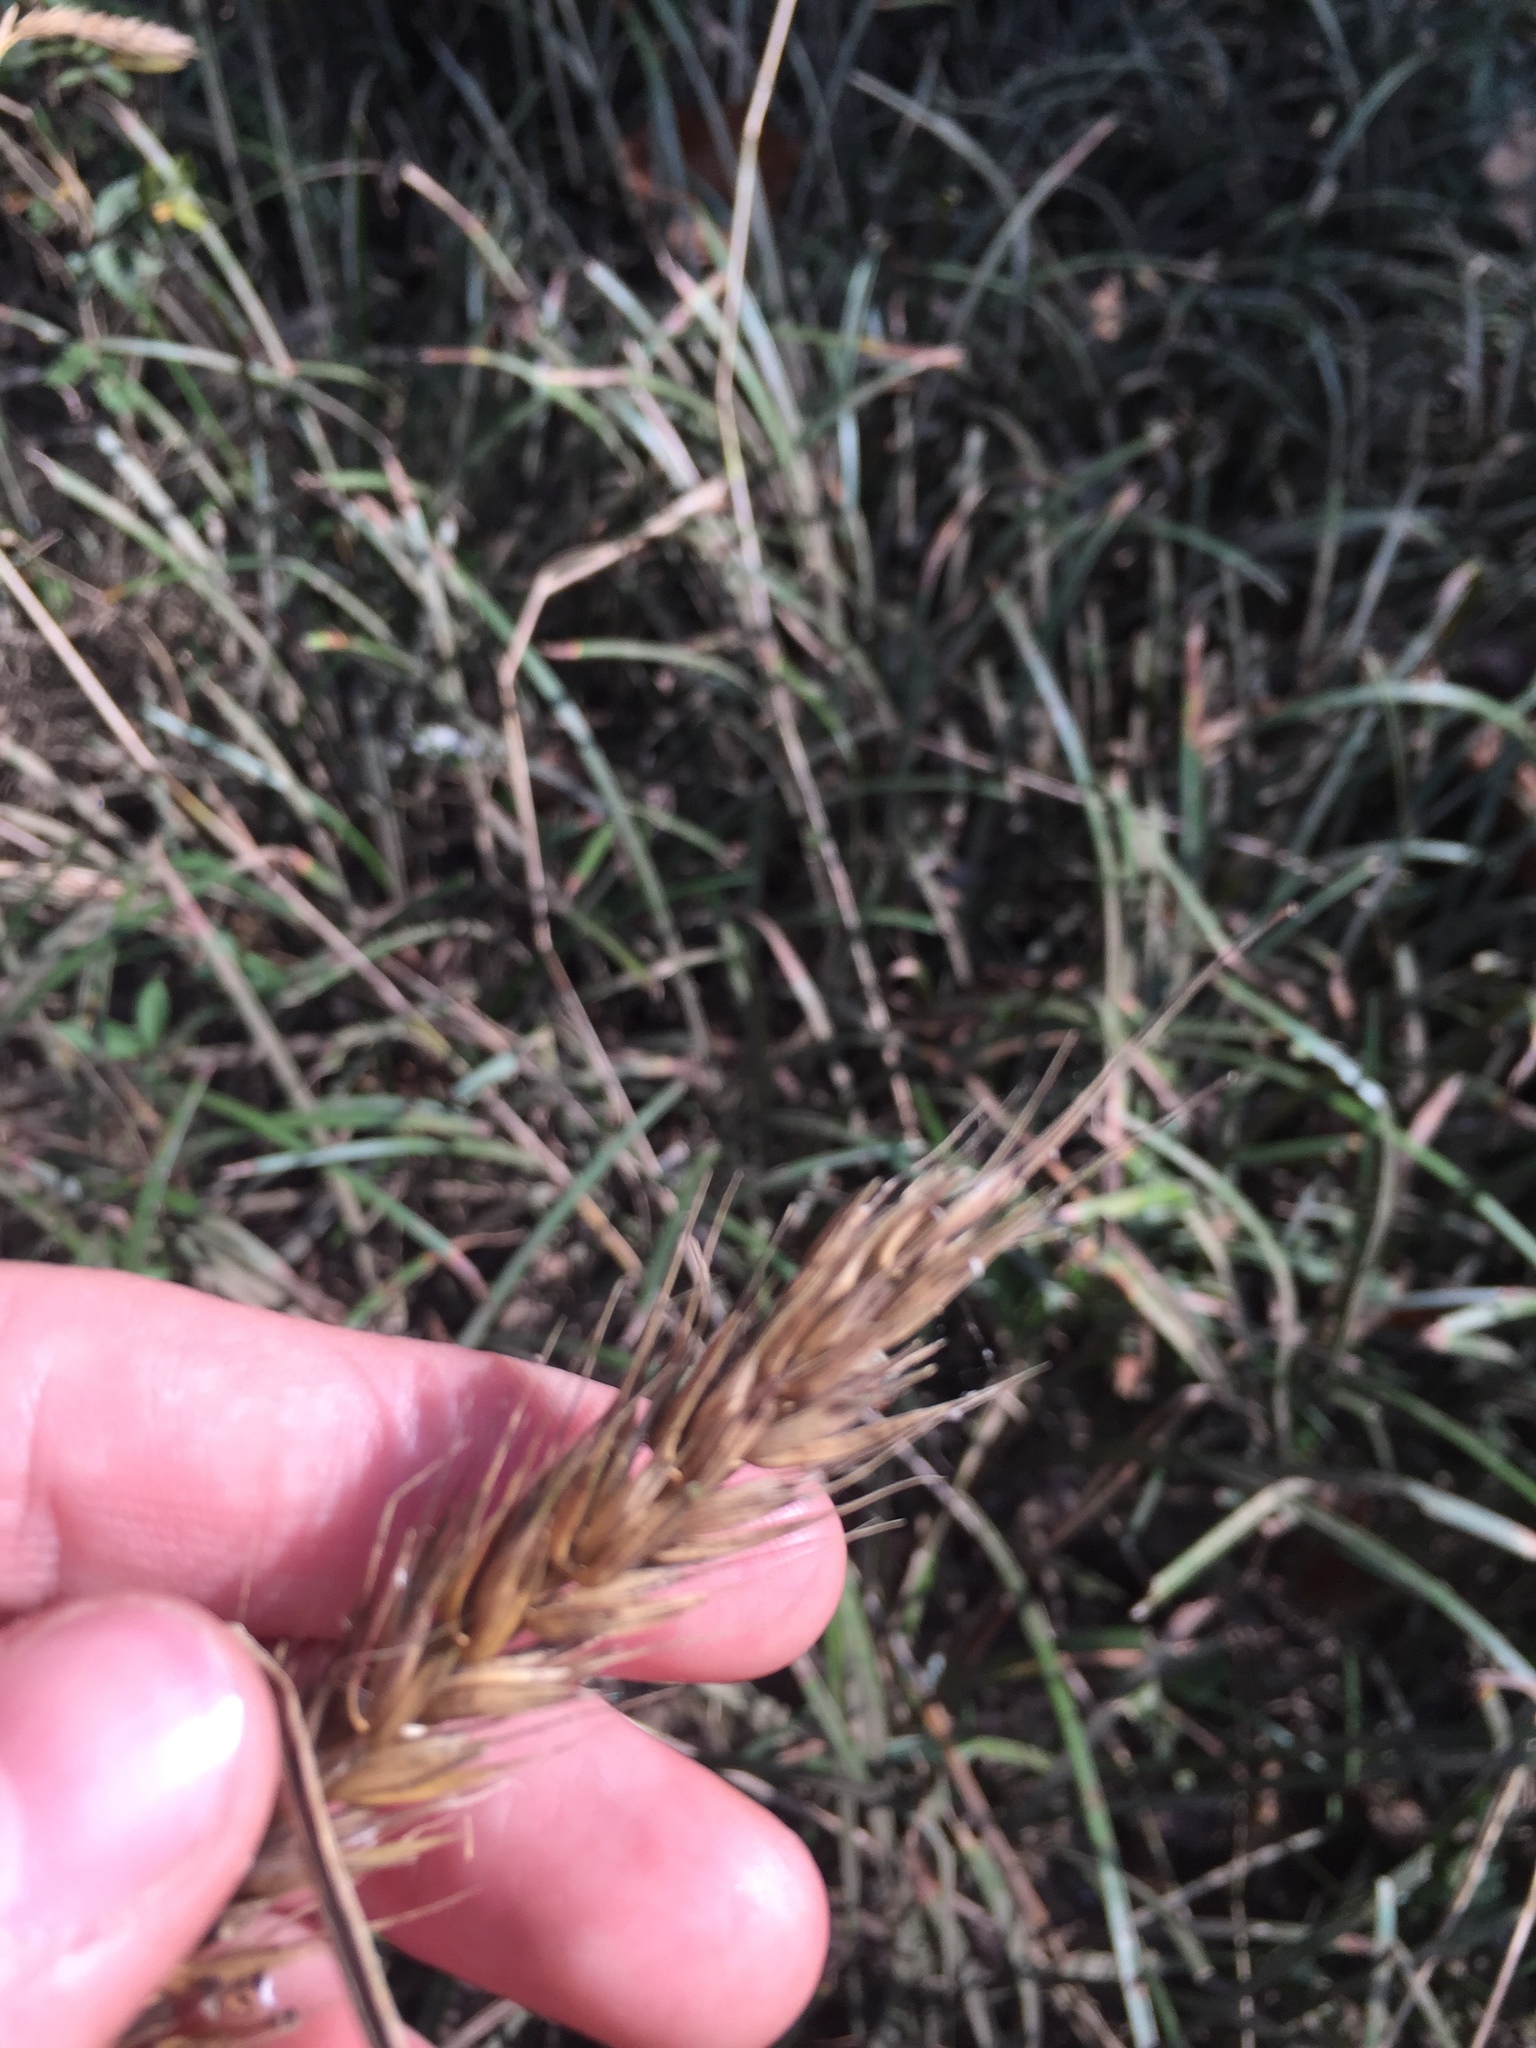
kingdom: Plantae
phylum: Tracheophyta
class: Liliopsida
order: Poales
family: Poaceae
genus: Elymus
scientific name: Elymus virginicus
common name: Common eastern wildrye
